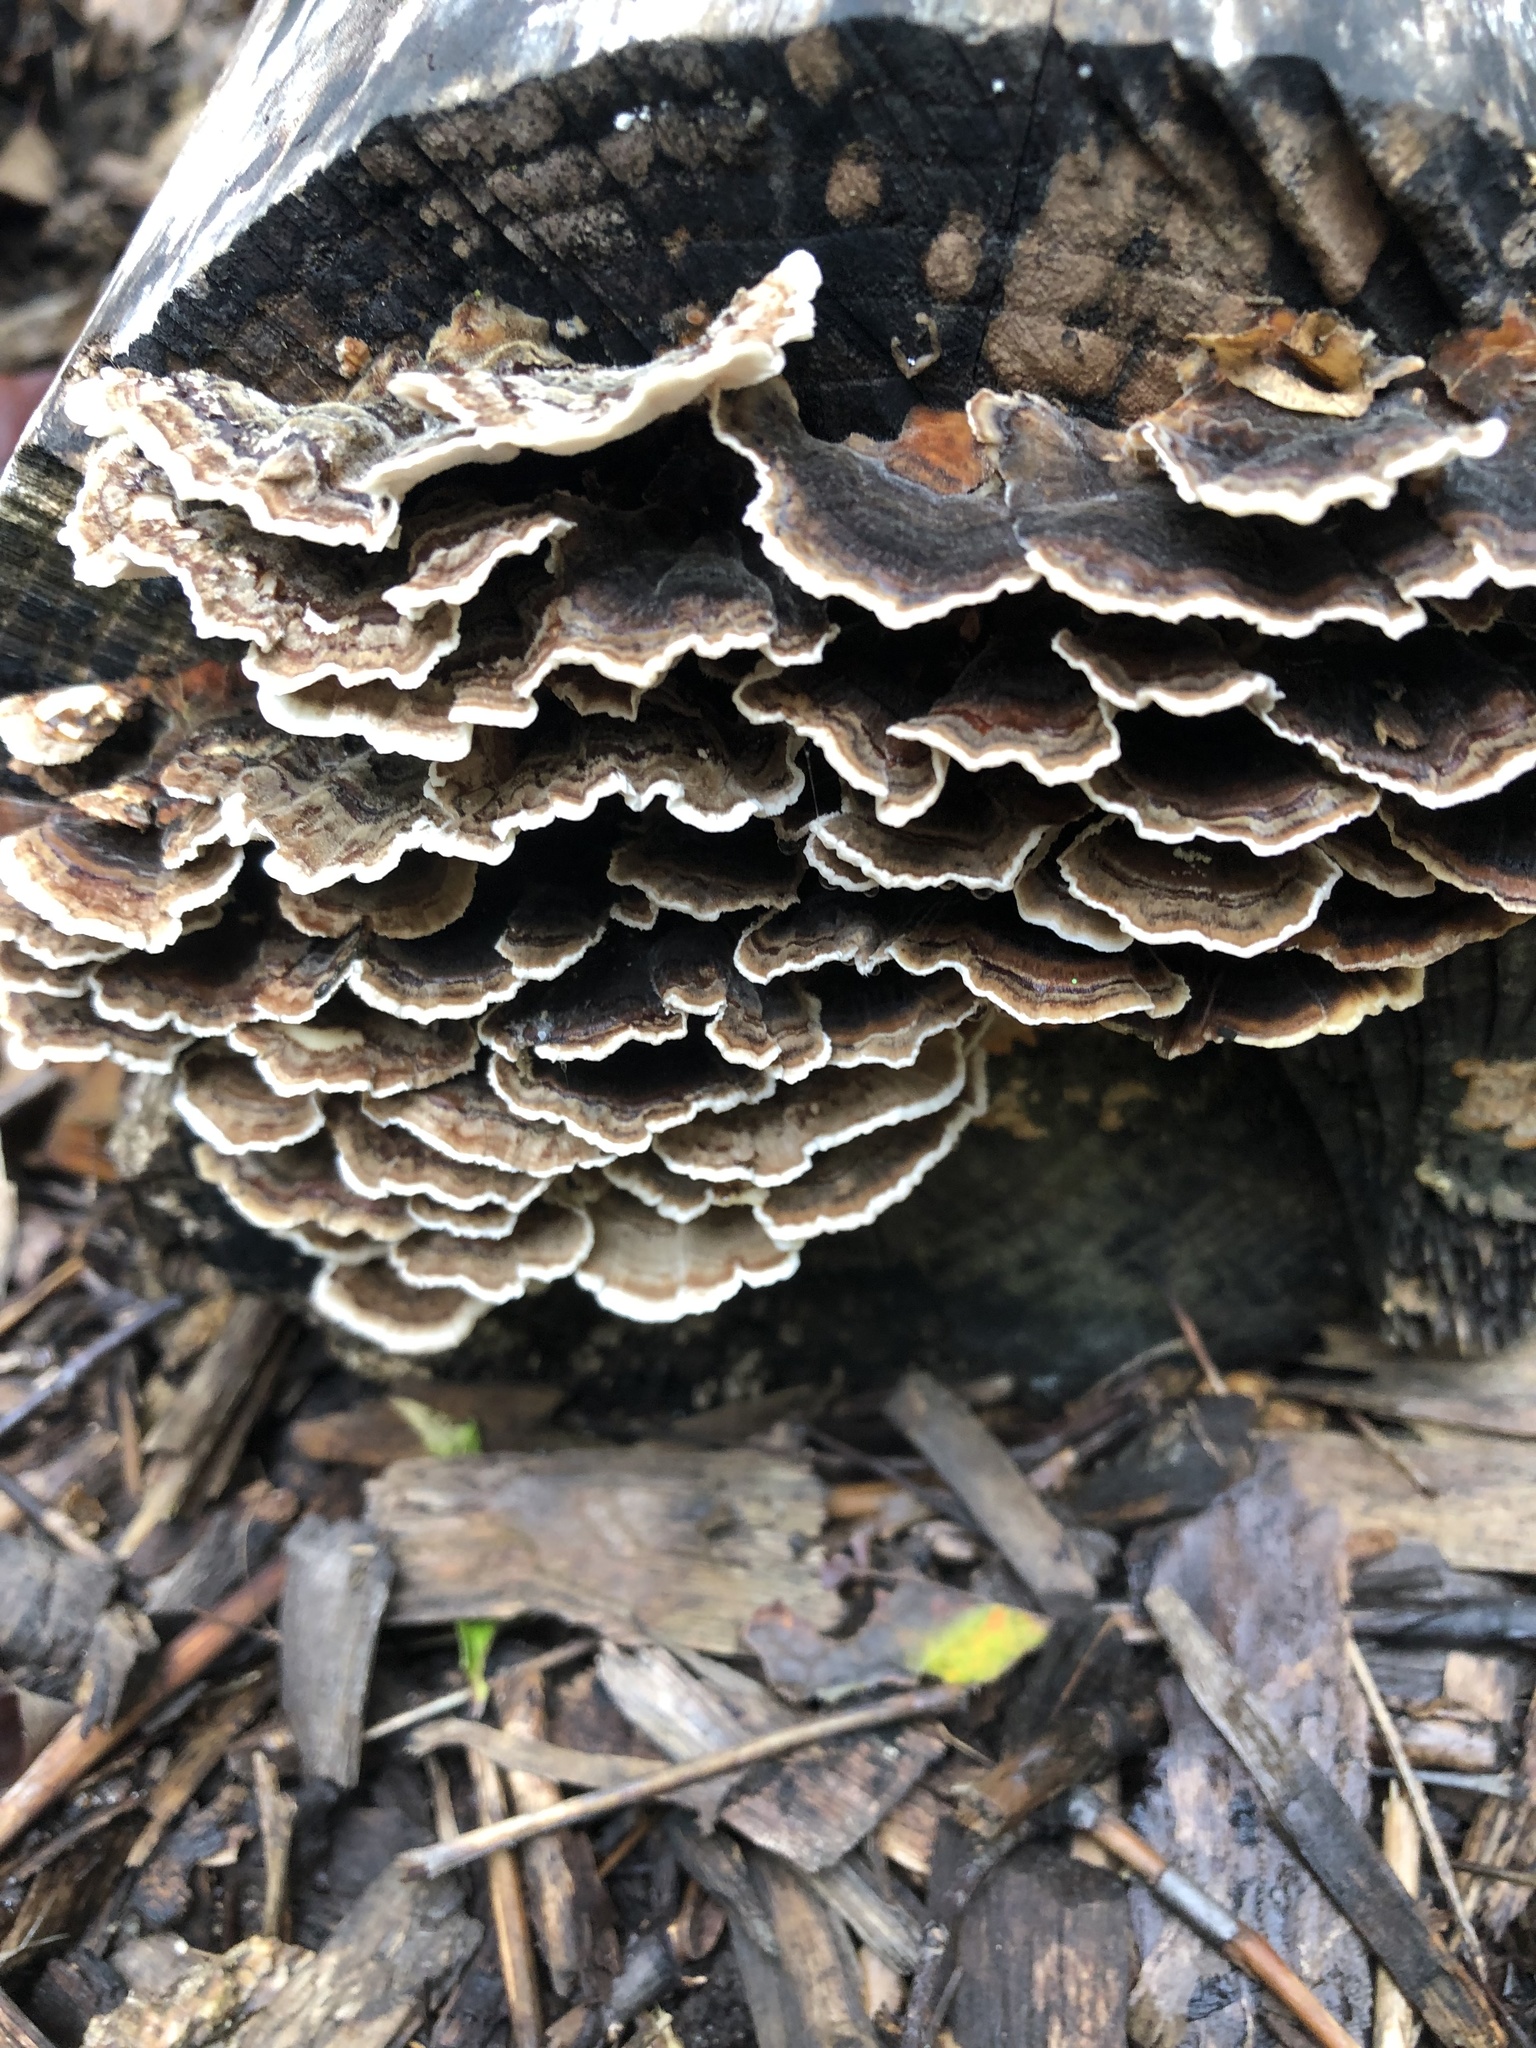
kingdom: Fungi
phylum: Basidiomycota
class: Agaricomycetes
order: Polyporales
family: Polyporaceae
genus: Trametes
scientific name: Trametes versicolor
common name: Turkeytail
